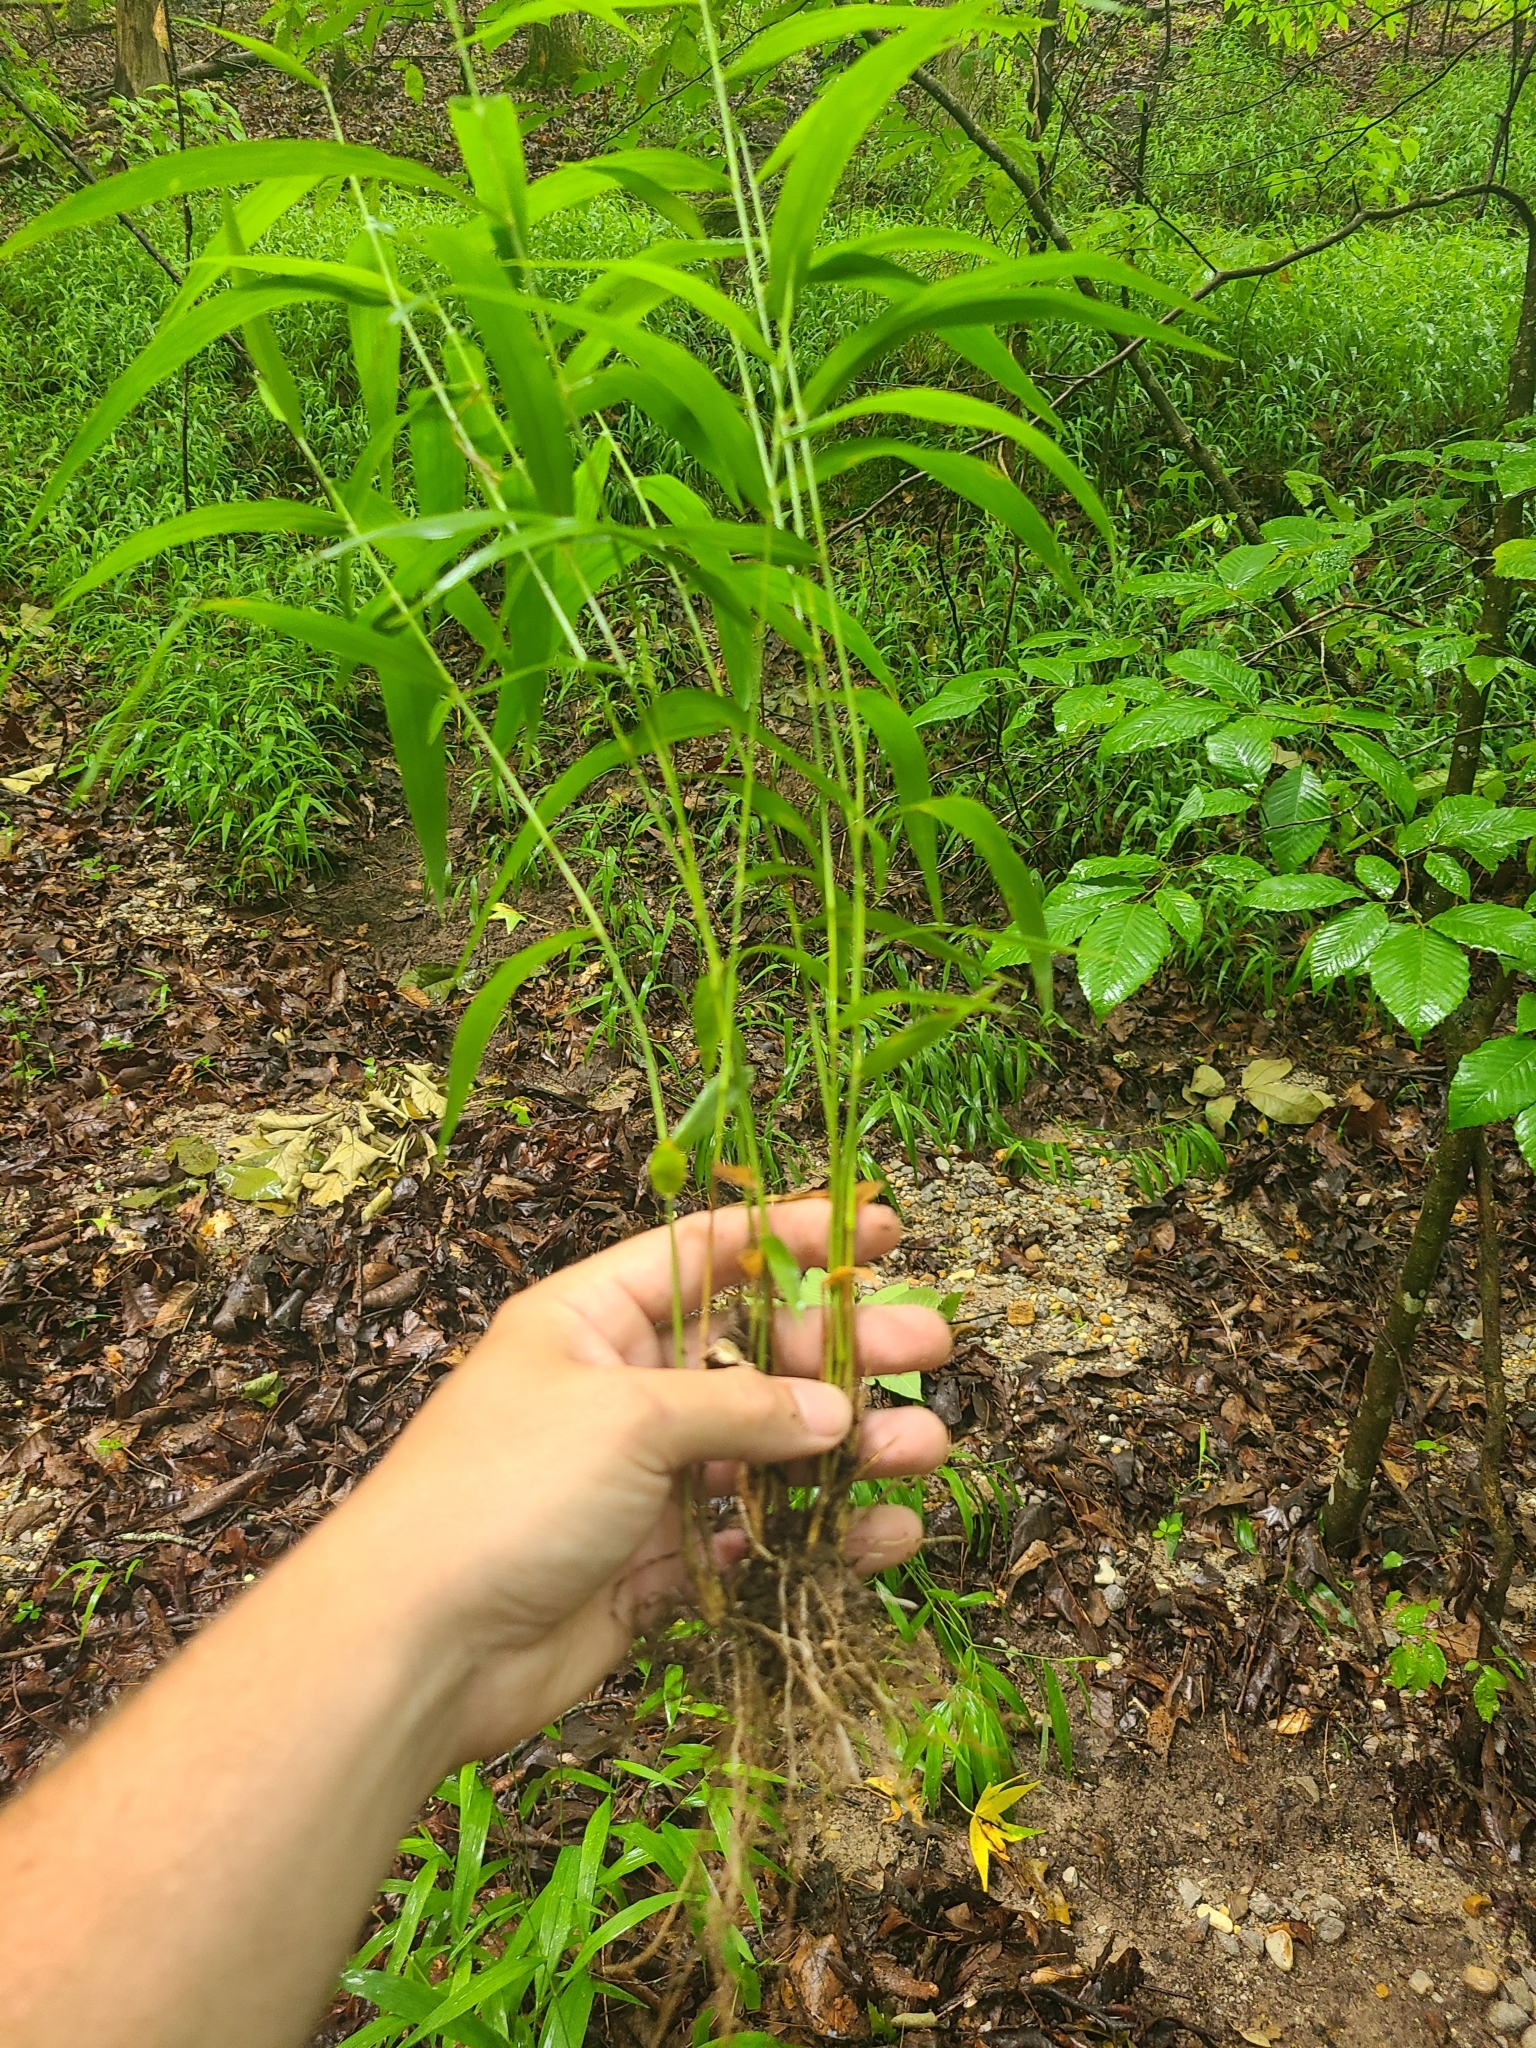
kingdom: Plantae
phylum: Tracheophyta
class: Liliopsida
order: Poales
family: Poaceae
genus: Brachyelytrum
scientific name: Brachyelytrum erectum
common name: Bearded shorthusk
